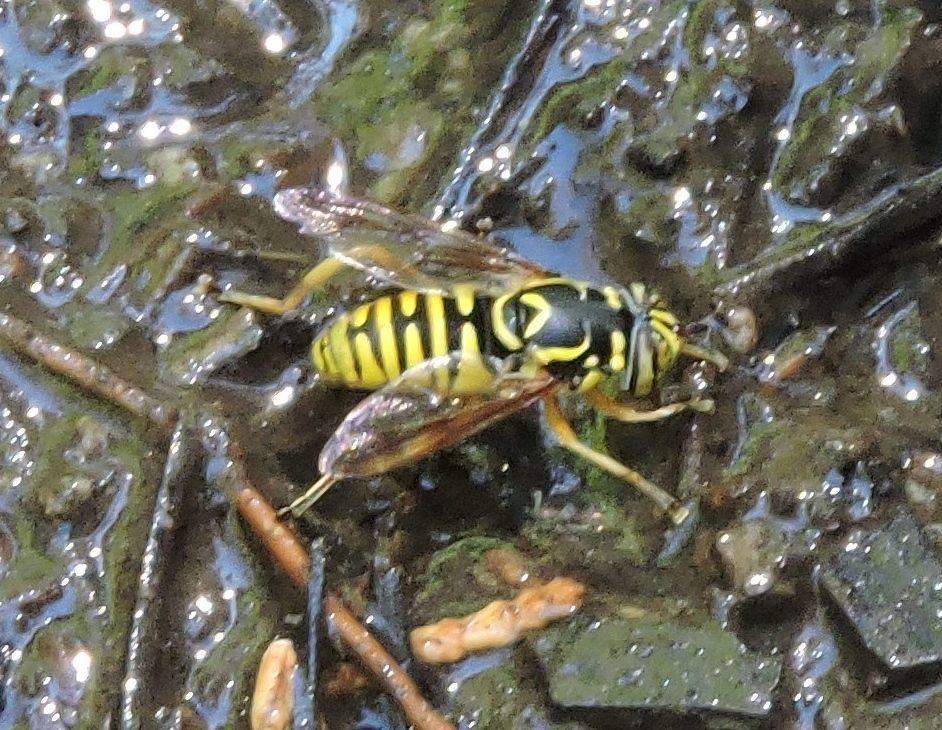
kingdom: Animalia
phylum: Arthropoda
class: Insecta
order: Diptera
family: Syrphidae
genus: Spilomyia
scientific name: Spilomyia interrupta
